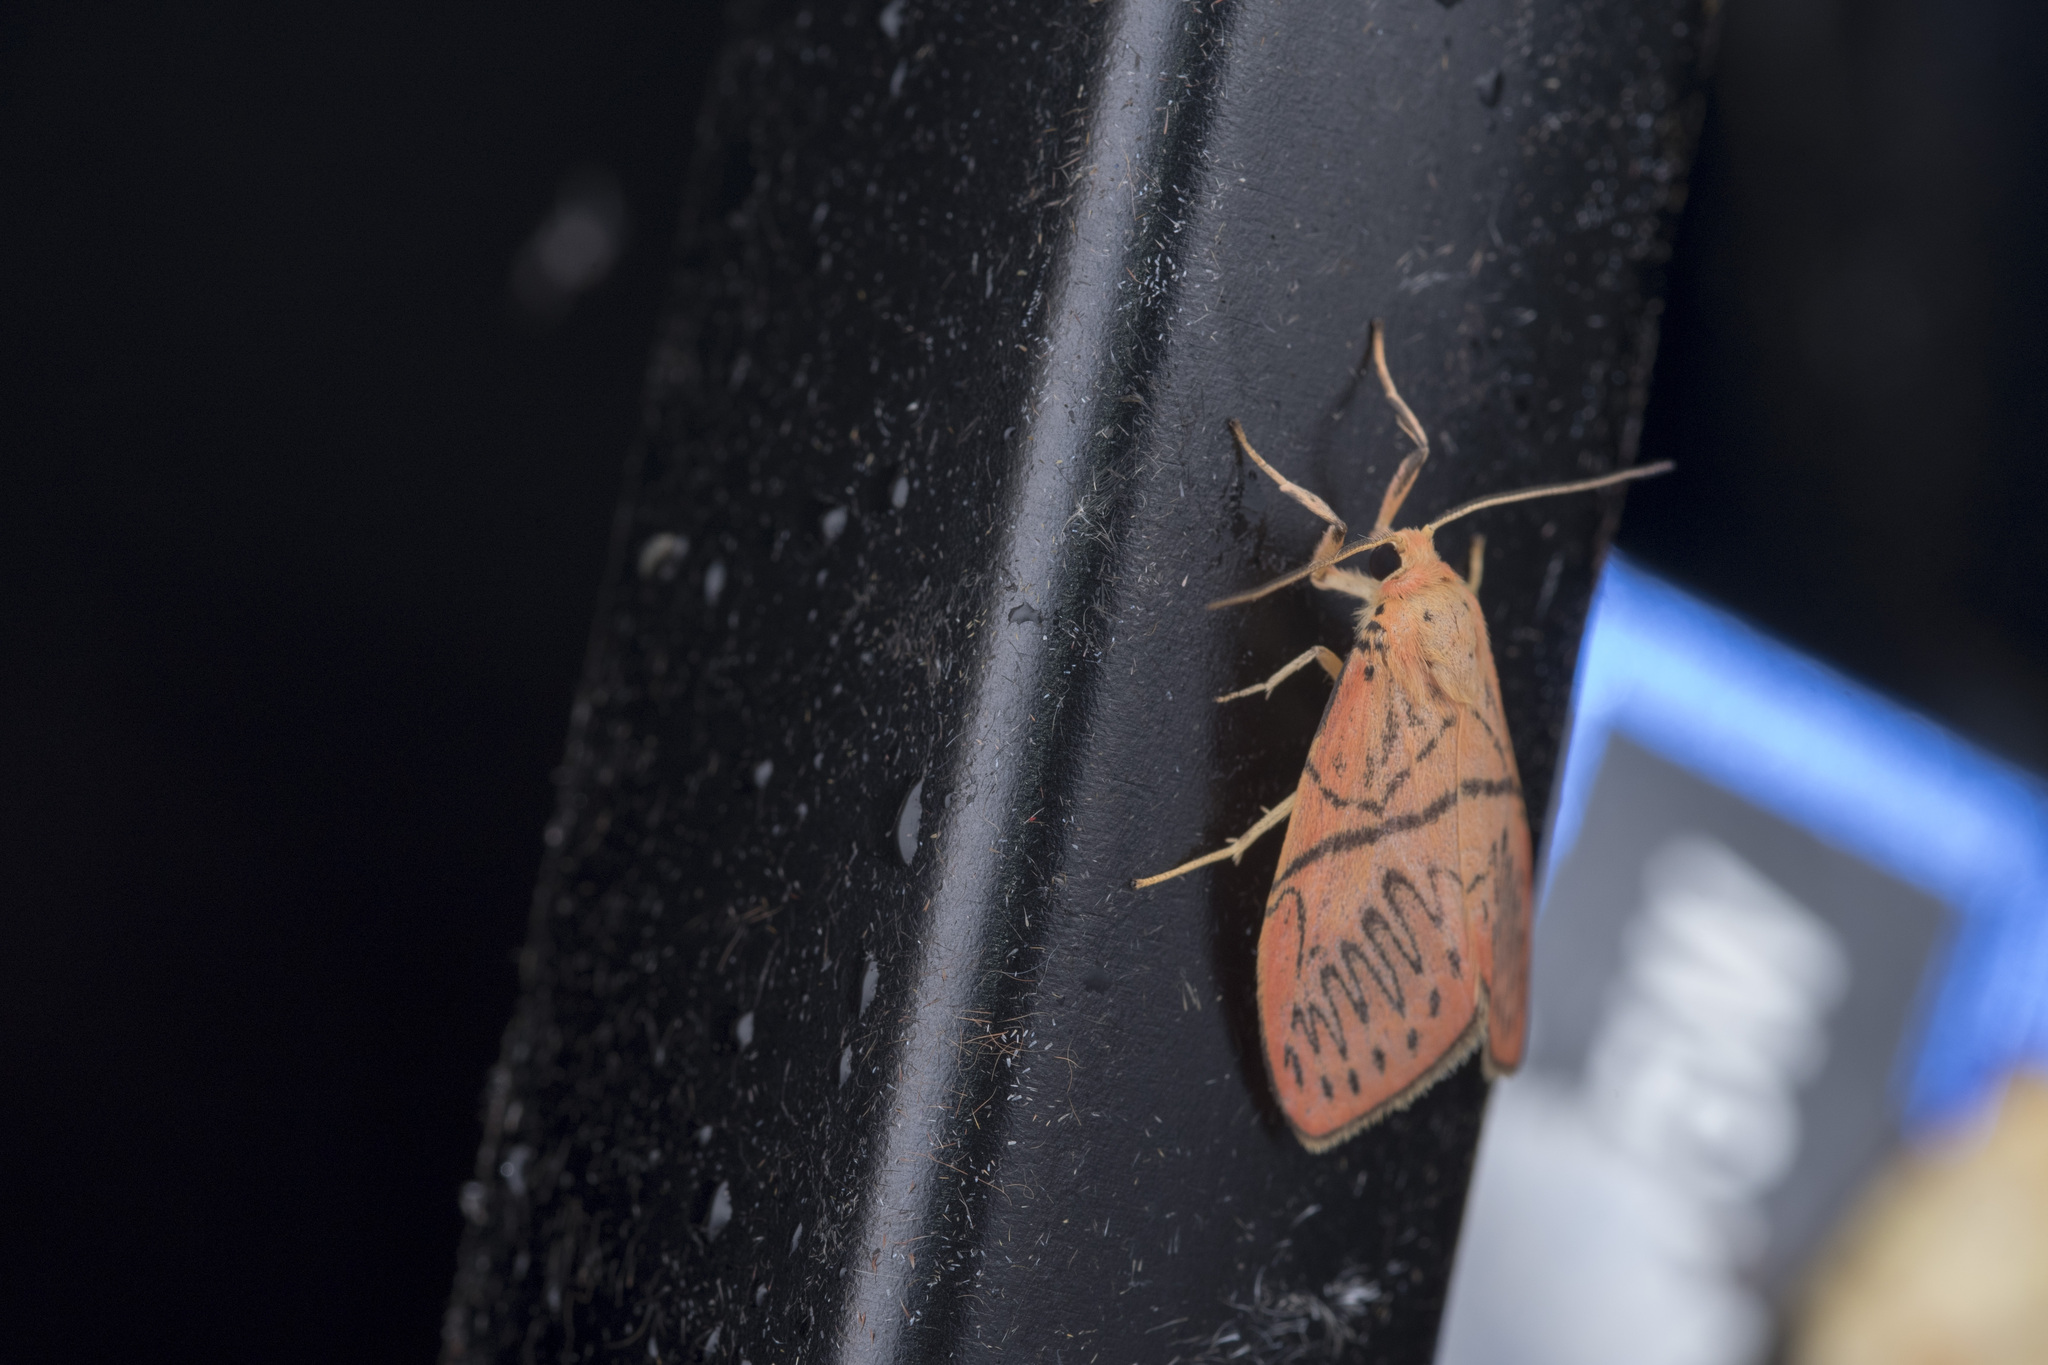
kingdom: Animalia
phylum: Arthropoda
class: Insecta
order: Lepidoptera
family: Erebidae
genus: Miltochrista
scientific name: Miltochrista yueh
